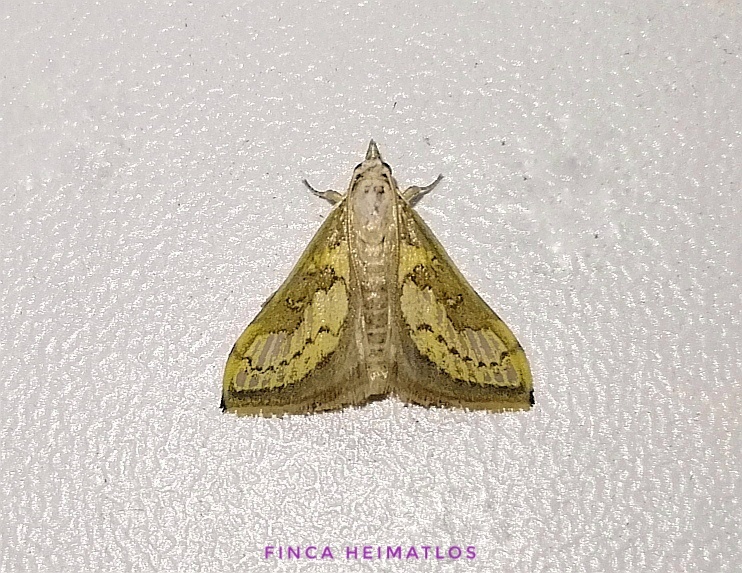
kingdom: Animalia
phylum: Arthropoda
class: Insecta
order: Lepidoptera
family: Crambidae
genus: Boeotarcha
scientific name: Boeotarcha lithocymalis
